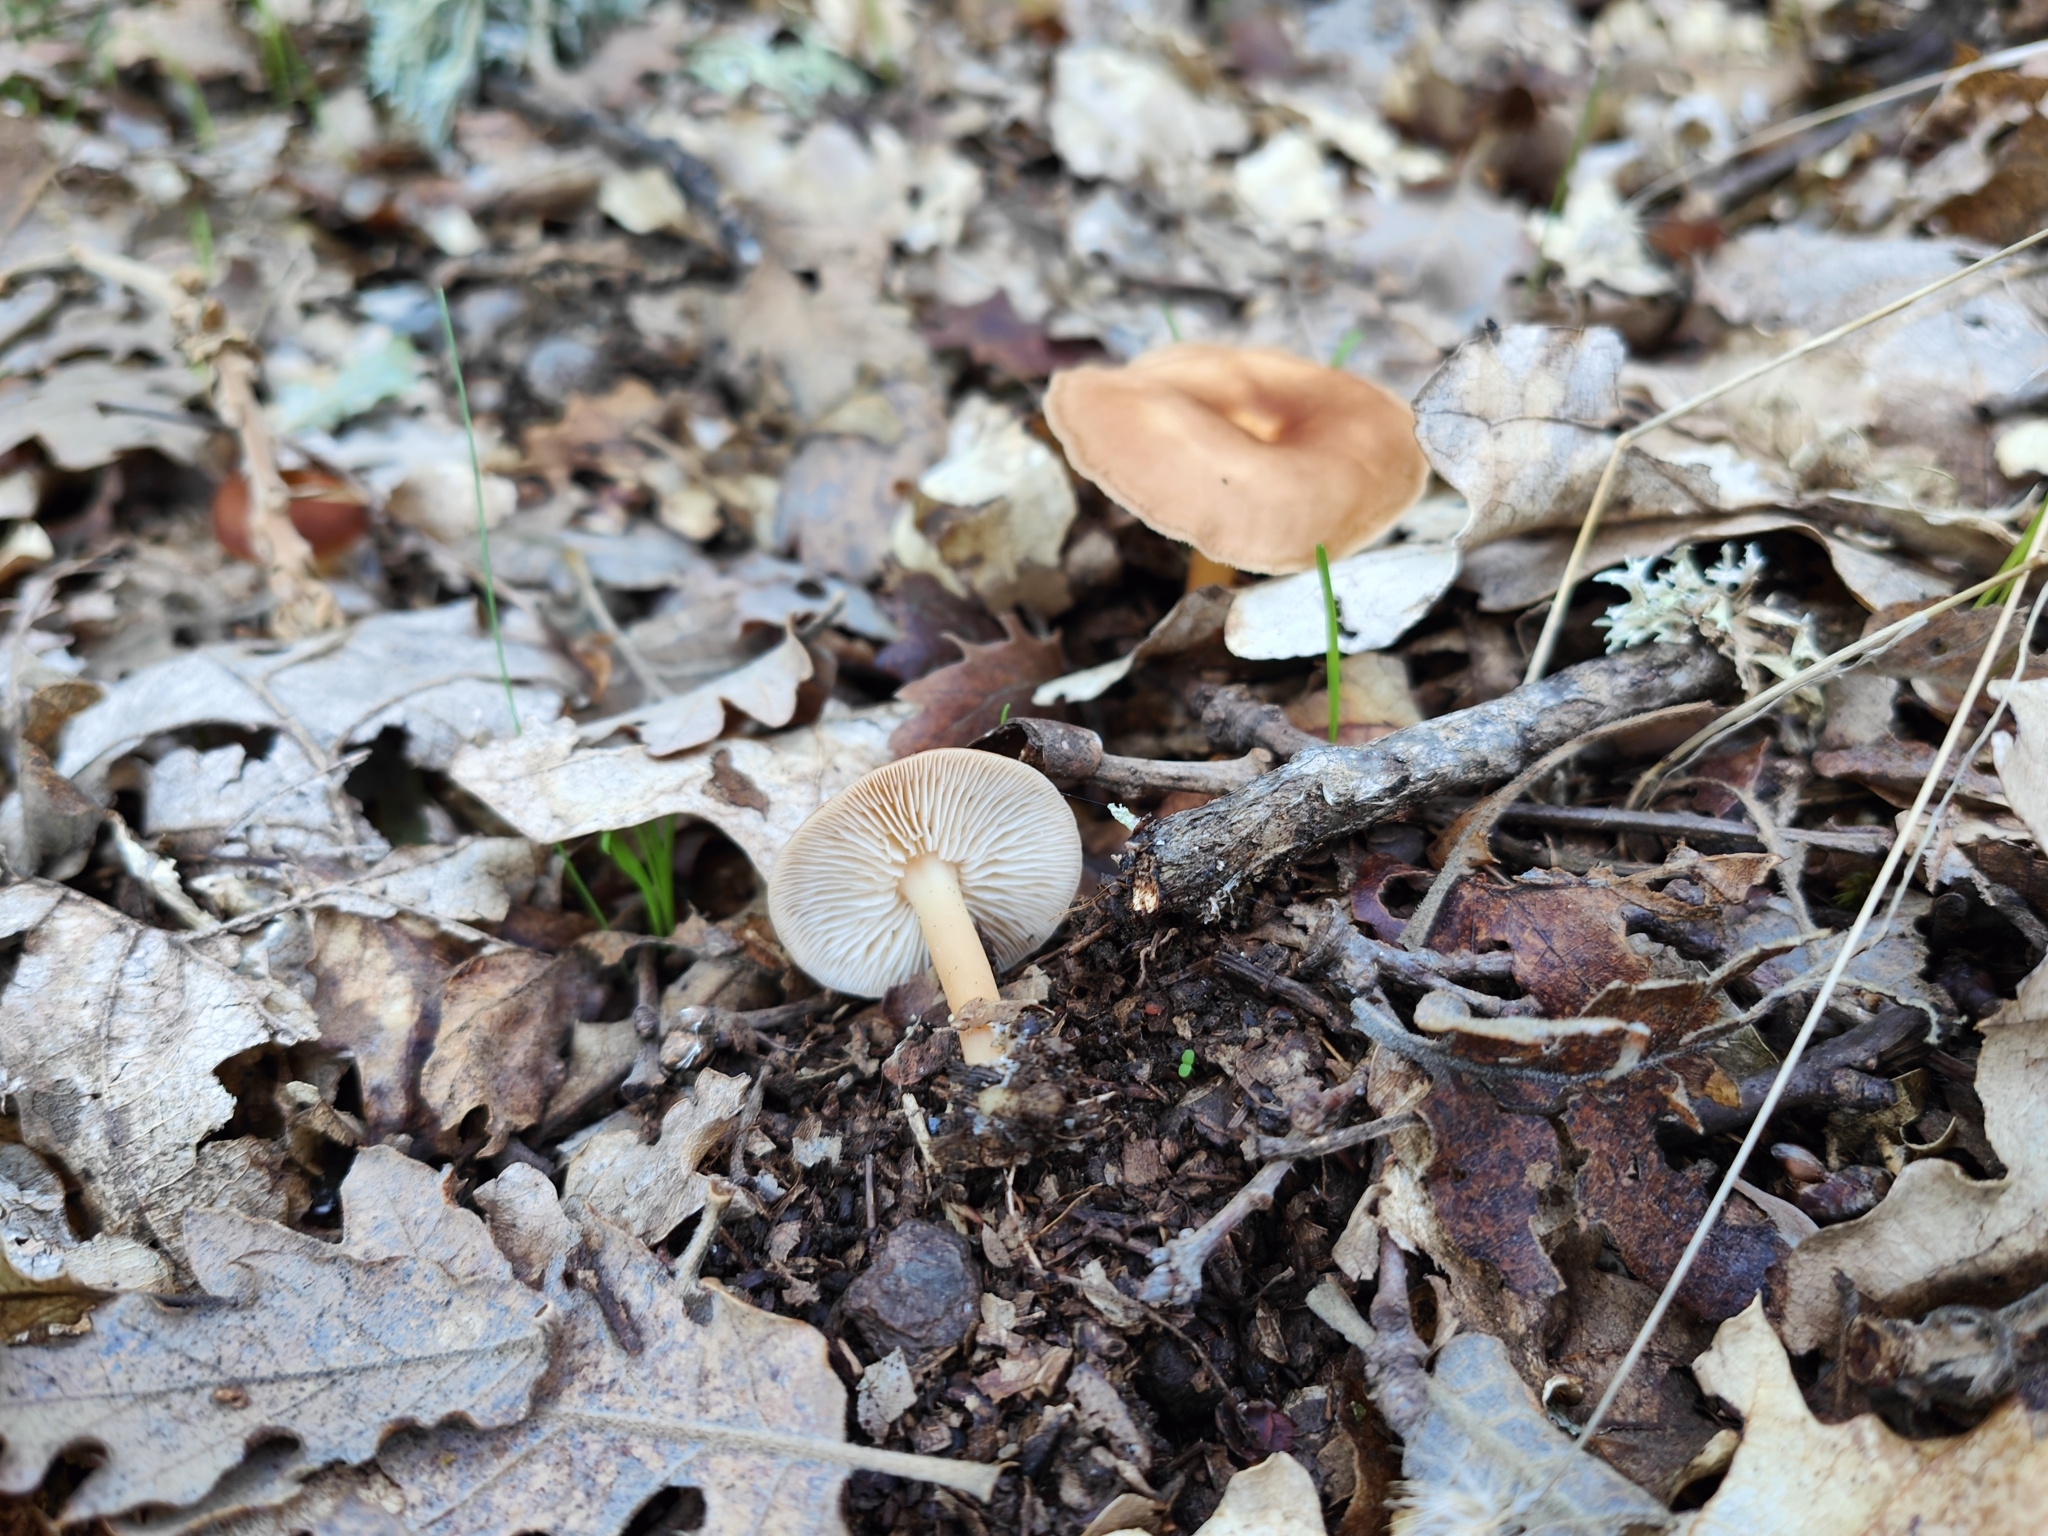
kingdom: Fungi
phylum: Basidiomycota
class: Agaricomycetes
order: Agaricales
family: Omphalotaceae
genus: Gymnopus
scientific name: Gymnopus dryophilus
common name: Penny top
